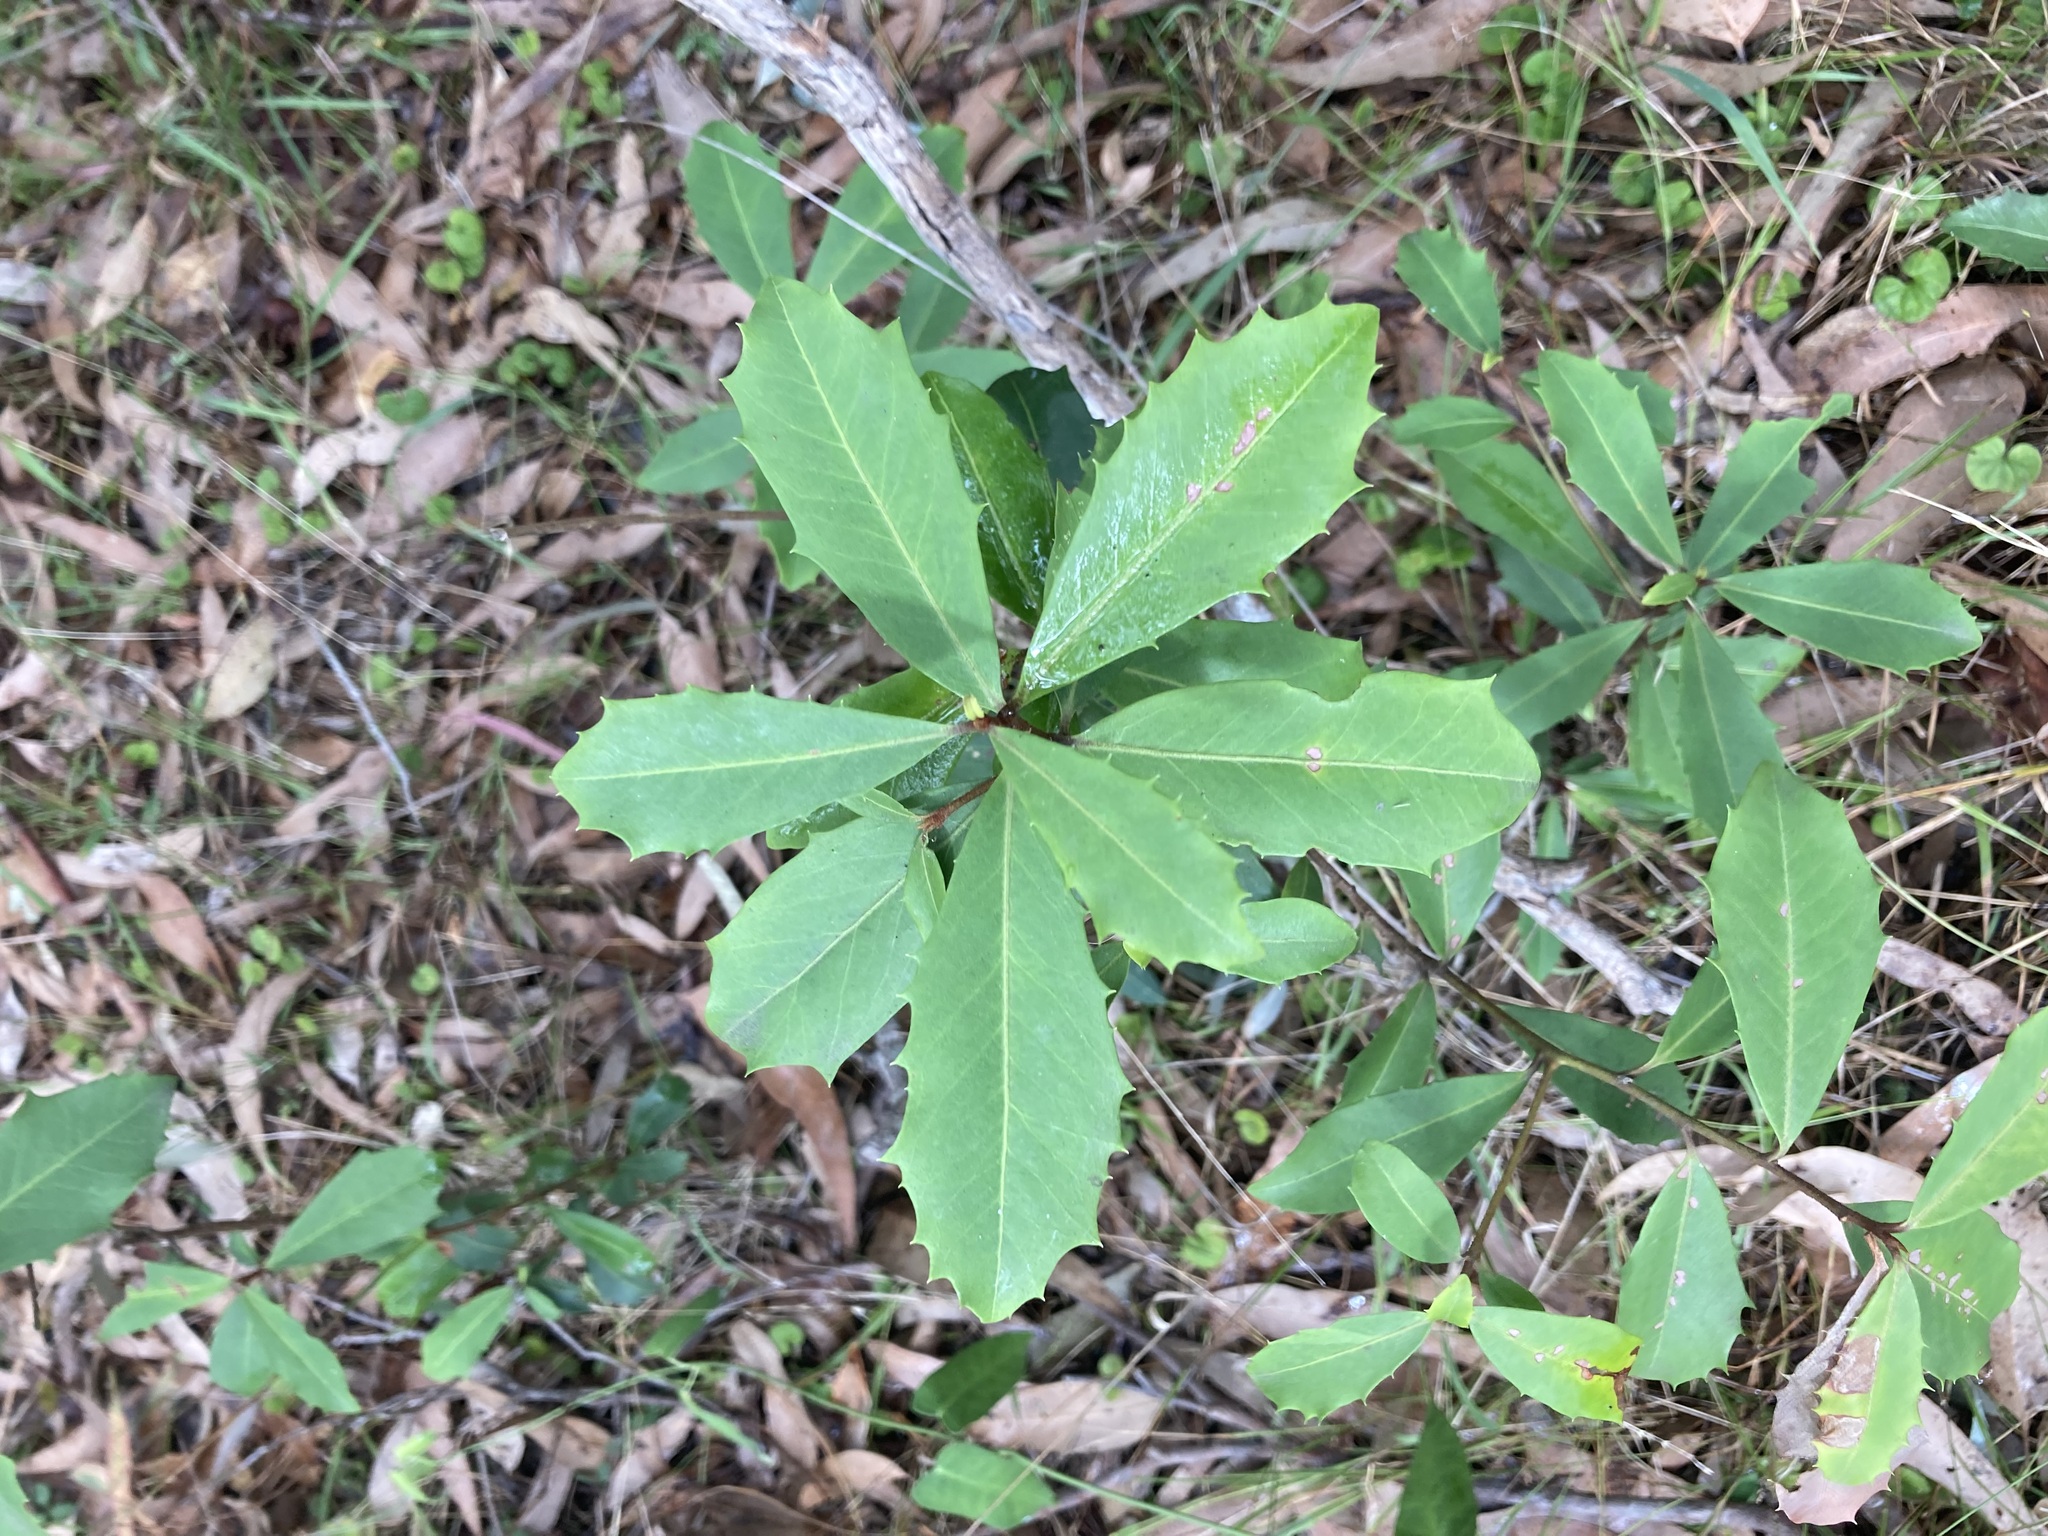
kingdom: Plantae
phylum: Tracheophyta
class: Magnoliopsida
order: Ericales
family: Primulaceae
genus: Myrsine
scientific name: Myrsine variabilis
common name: Brush muttonwood
